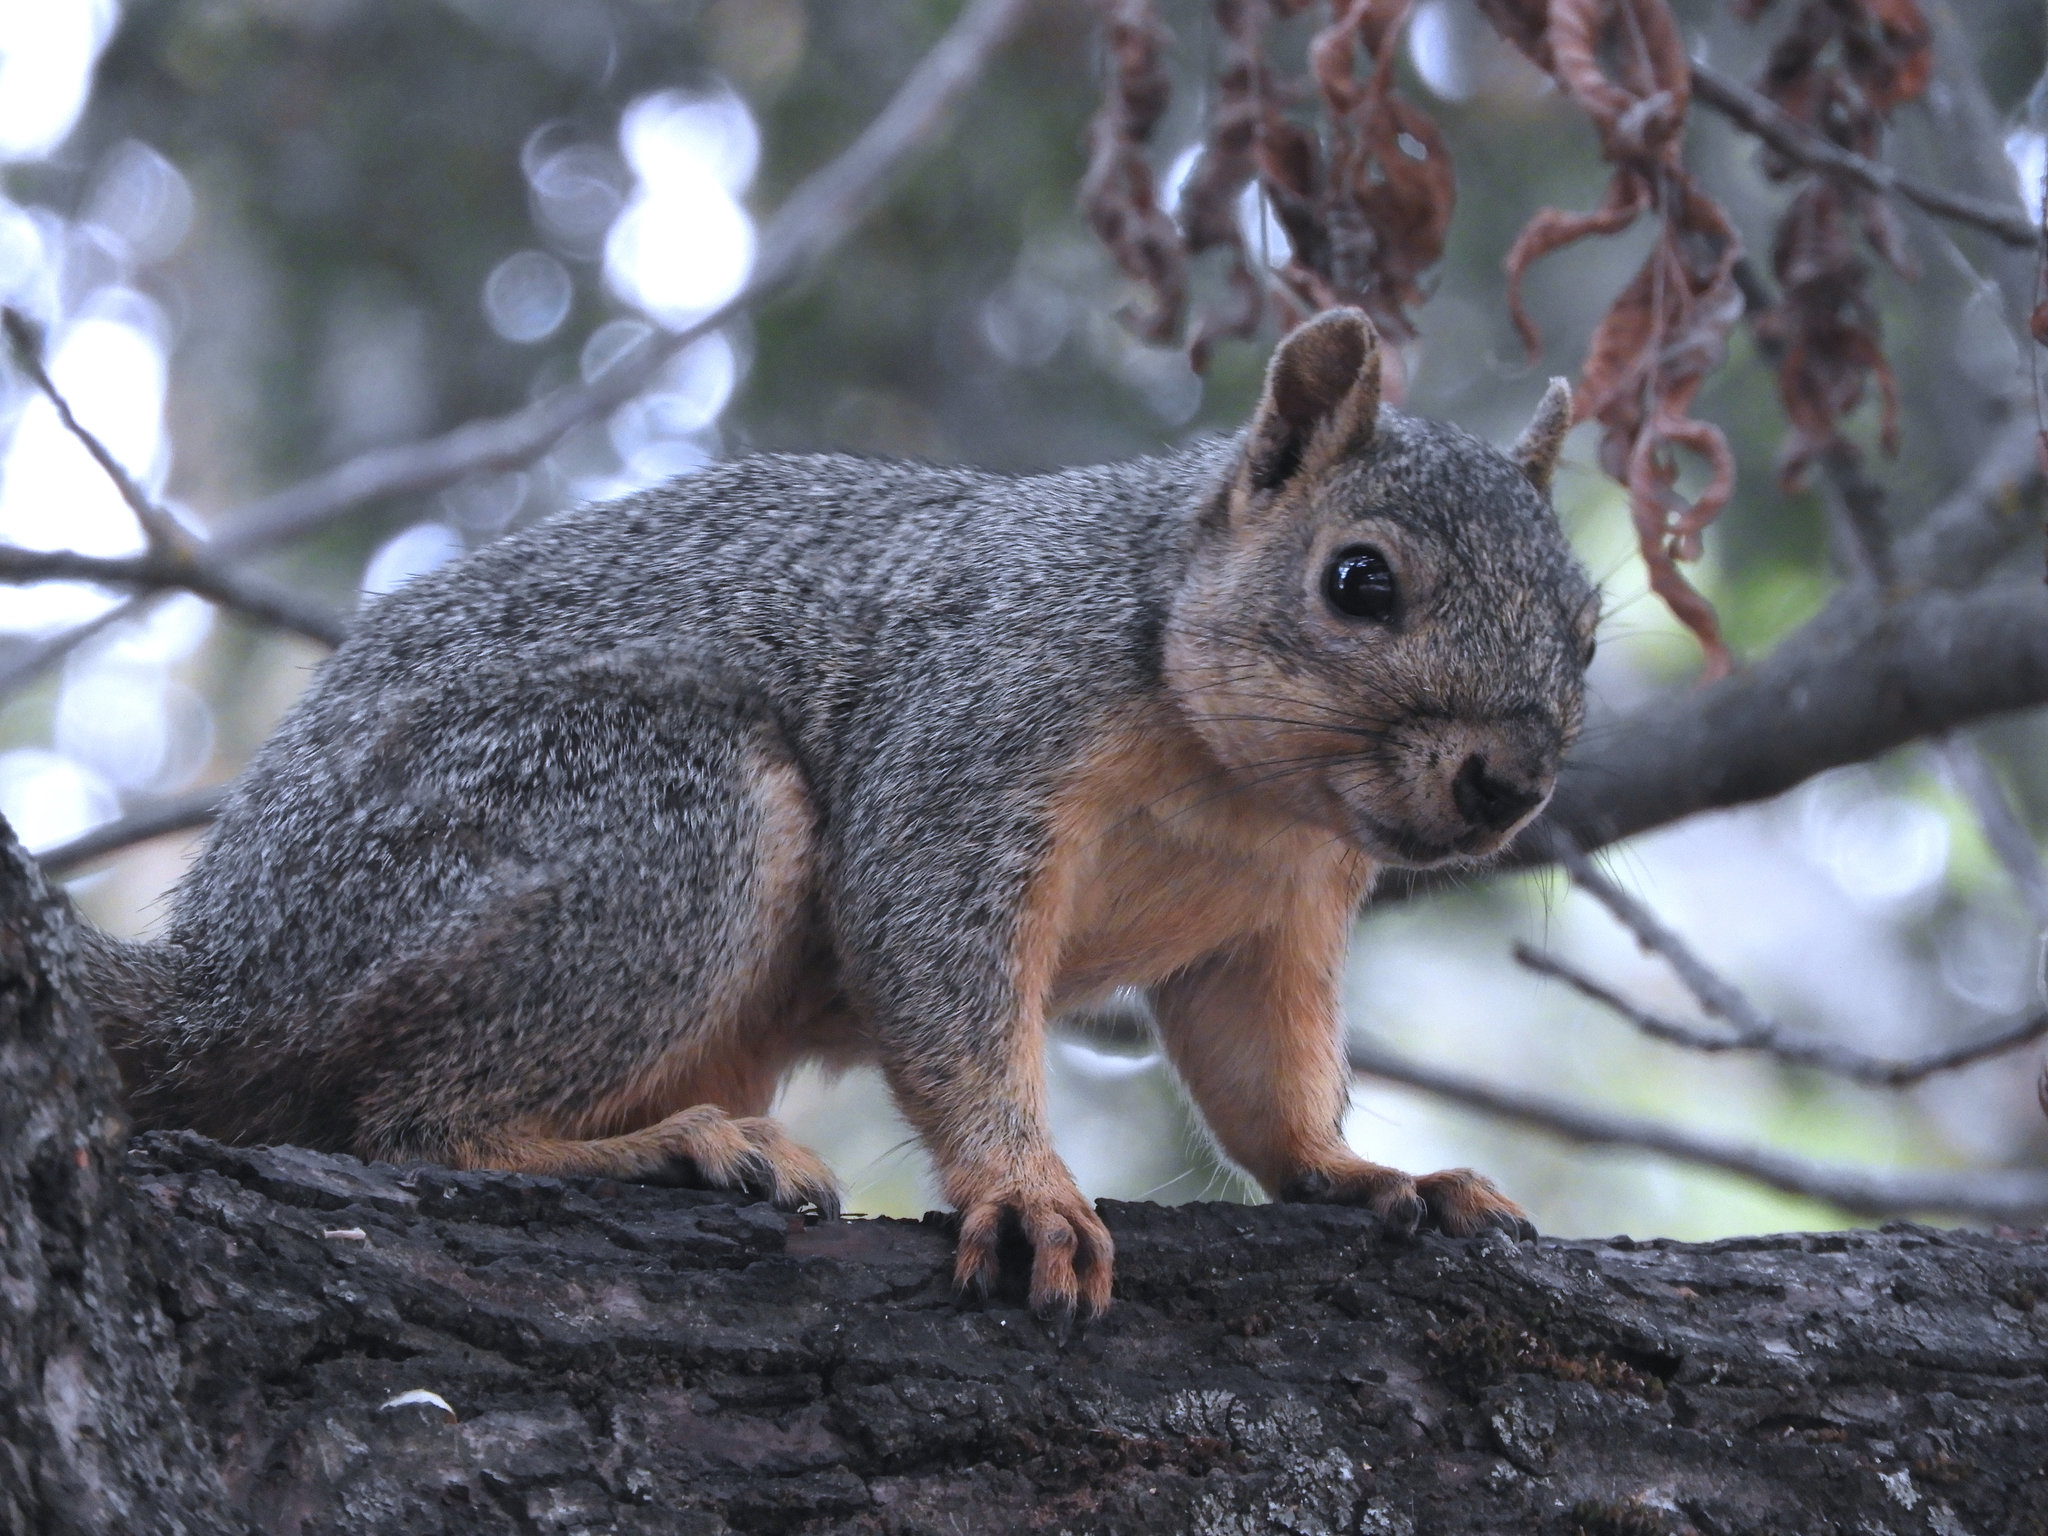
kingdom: Animalia
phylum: Chordata
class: Mammalia
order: Rodentia
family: Sciuridae
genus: Sciurus
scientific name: Sciurus niger
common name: Fox squirrel
